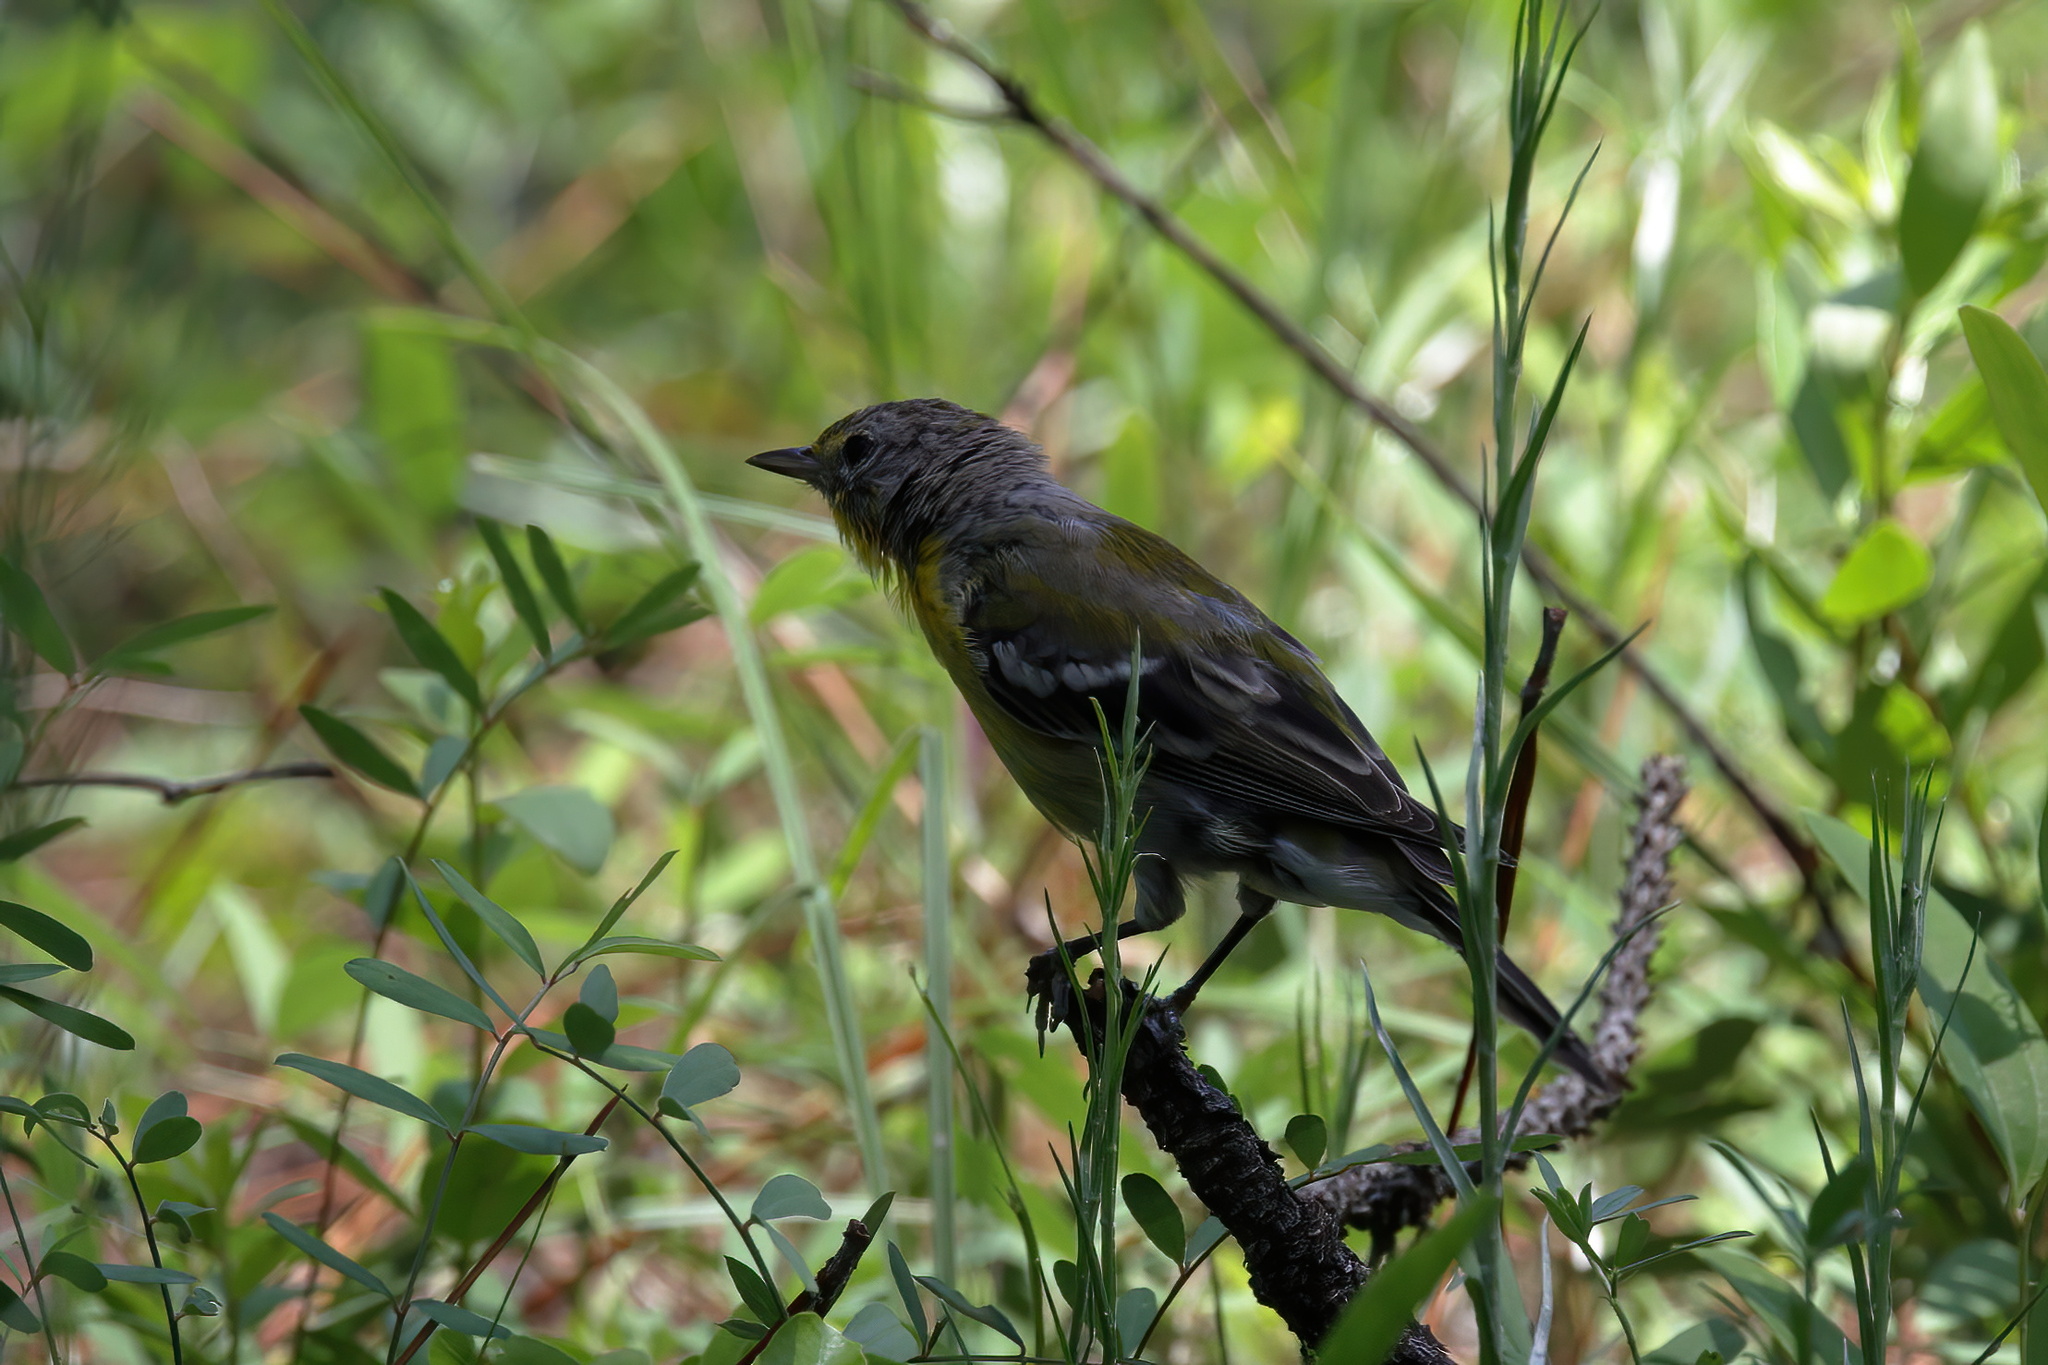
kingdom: Animalia
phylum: Chordata
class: Aves
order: Passeriformes
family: Parulidae
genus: Setophaga
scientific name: Setophaga pinus
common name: Pine warbler
